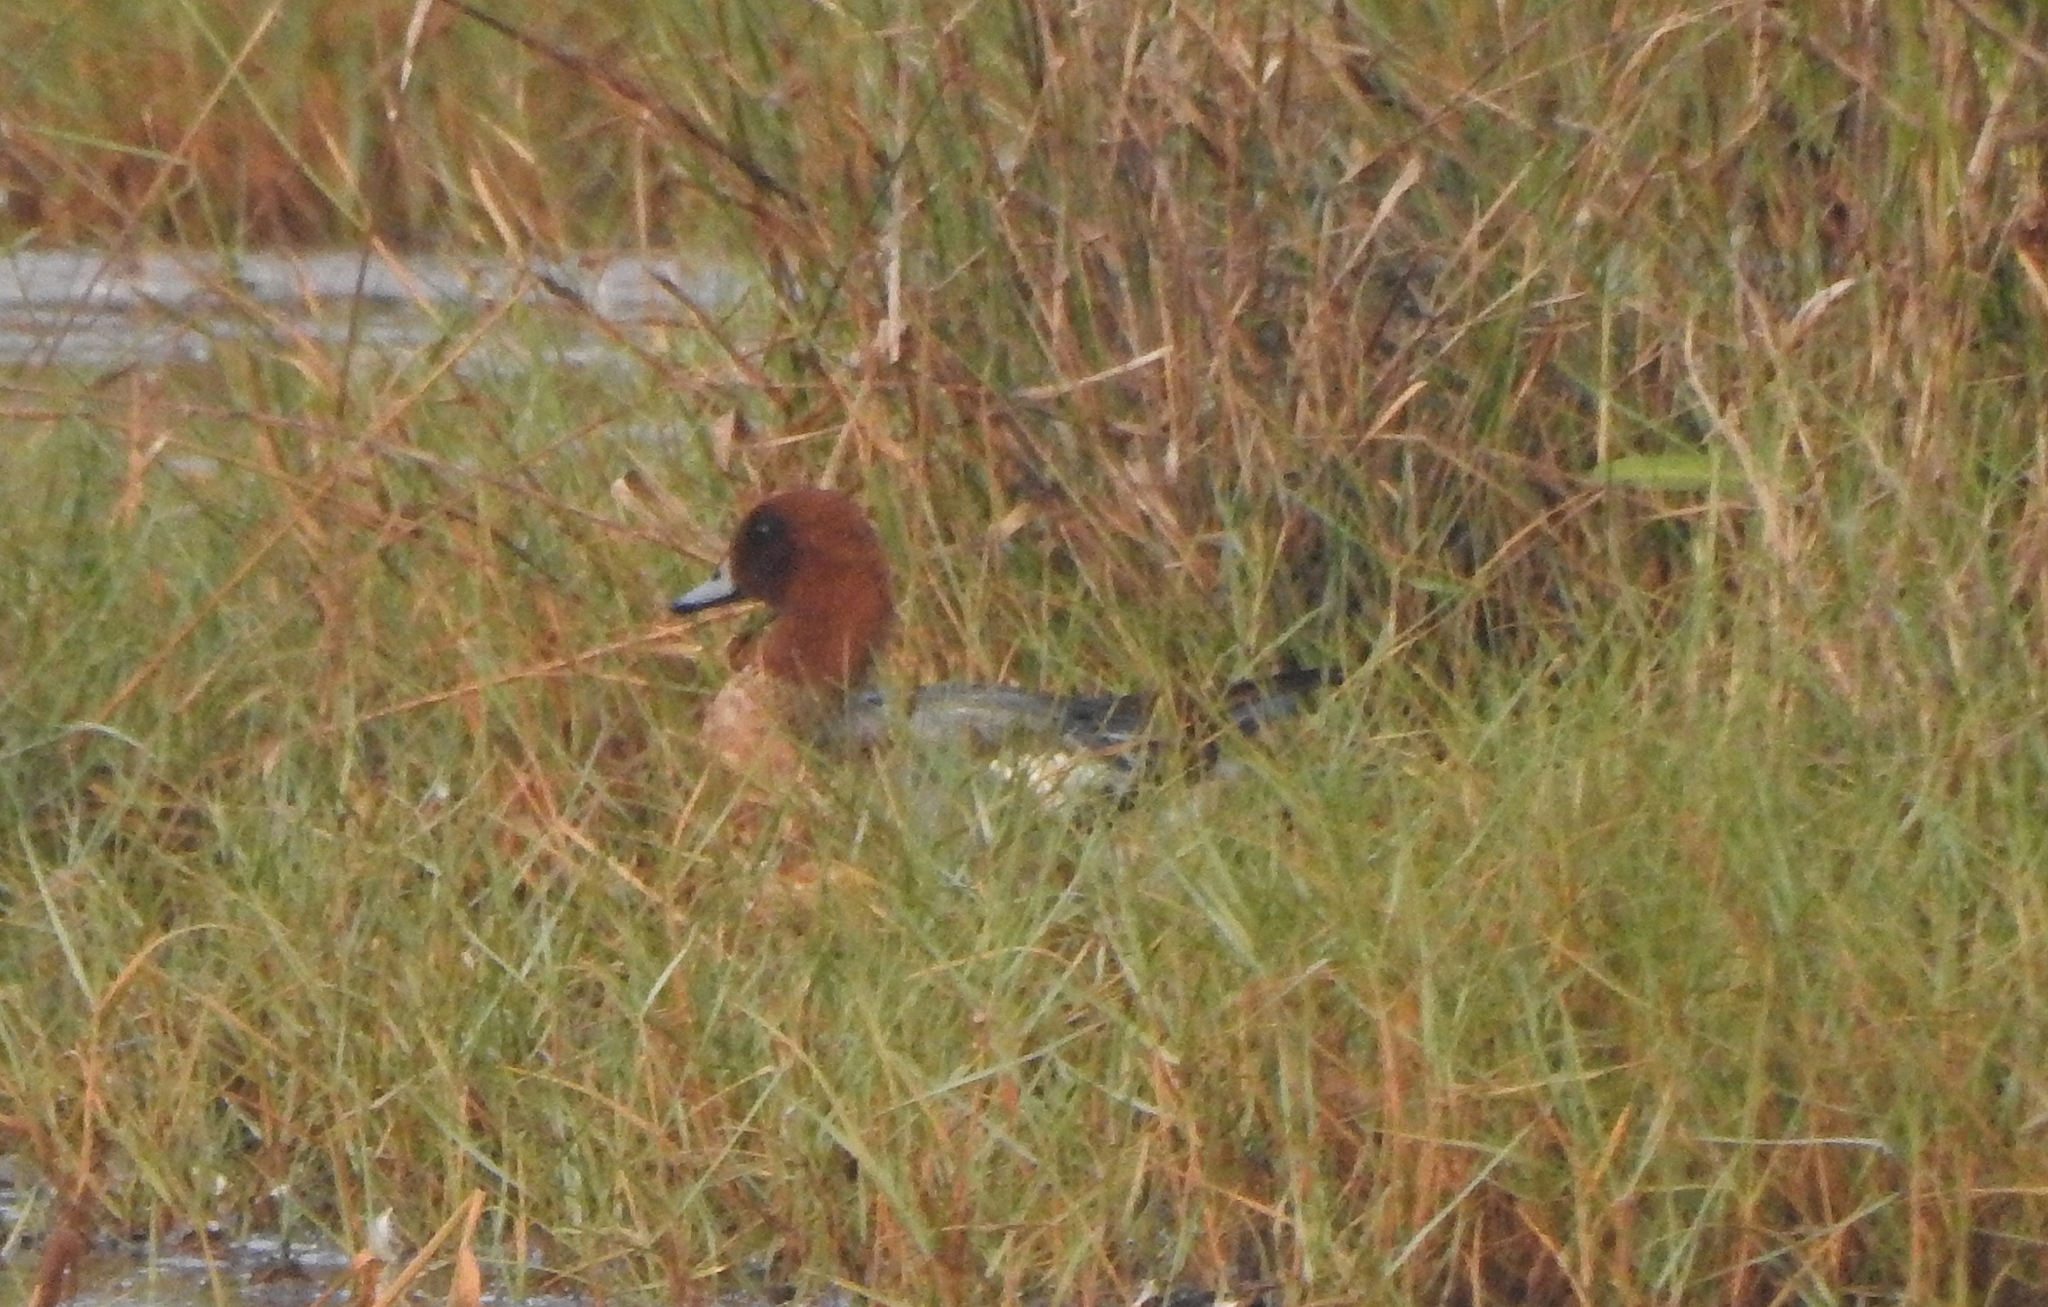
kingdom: Animalia
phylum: Chordata
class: Aves
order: Anseriformes
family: Anatidae
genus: Mareca
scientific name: Mareca penelope
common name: Eurasian wigeon
